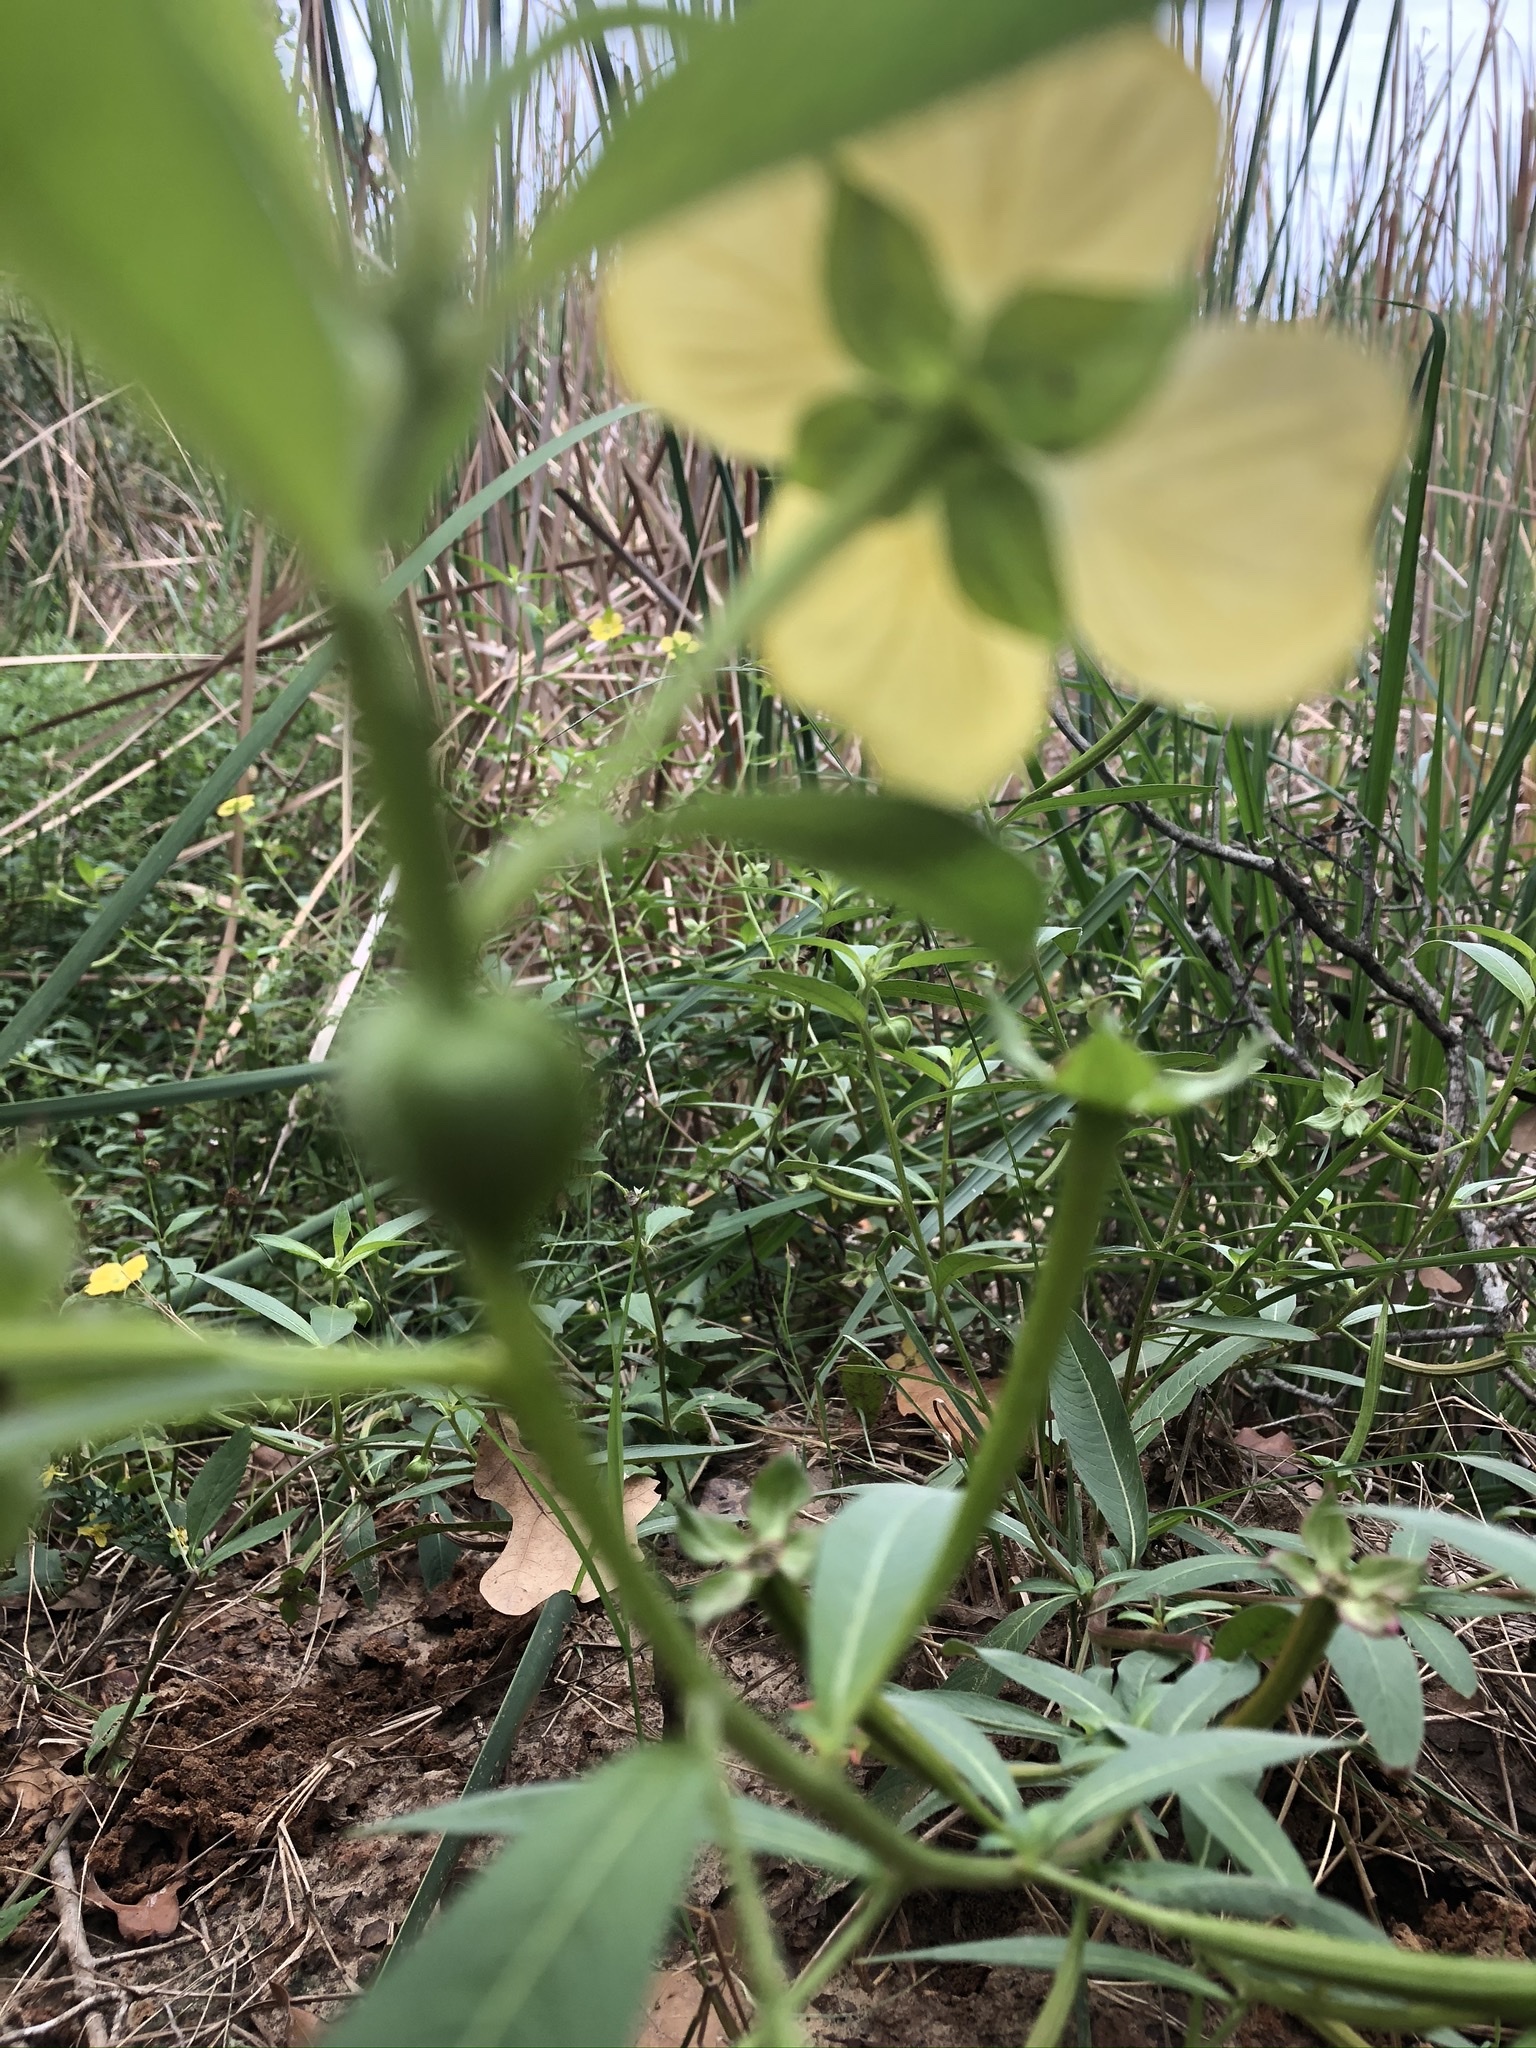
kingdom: Plantae
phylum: Tracheophyta
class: Magnoliopsida
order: Myrtales
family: Onagraceae
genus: Ludwigia
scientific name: Ludwigia octovalvis
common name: Water-primrose
